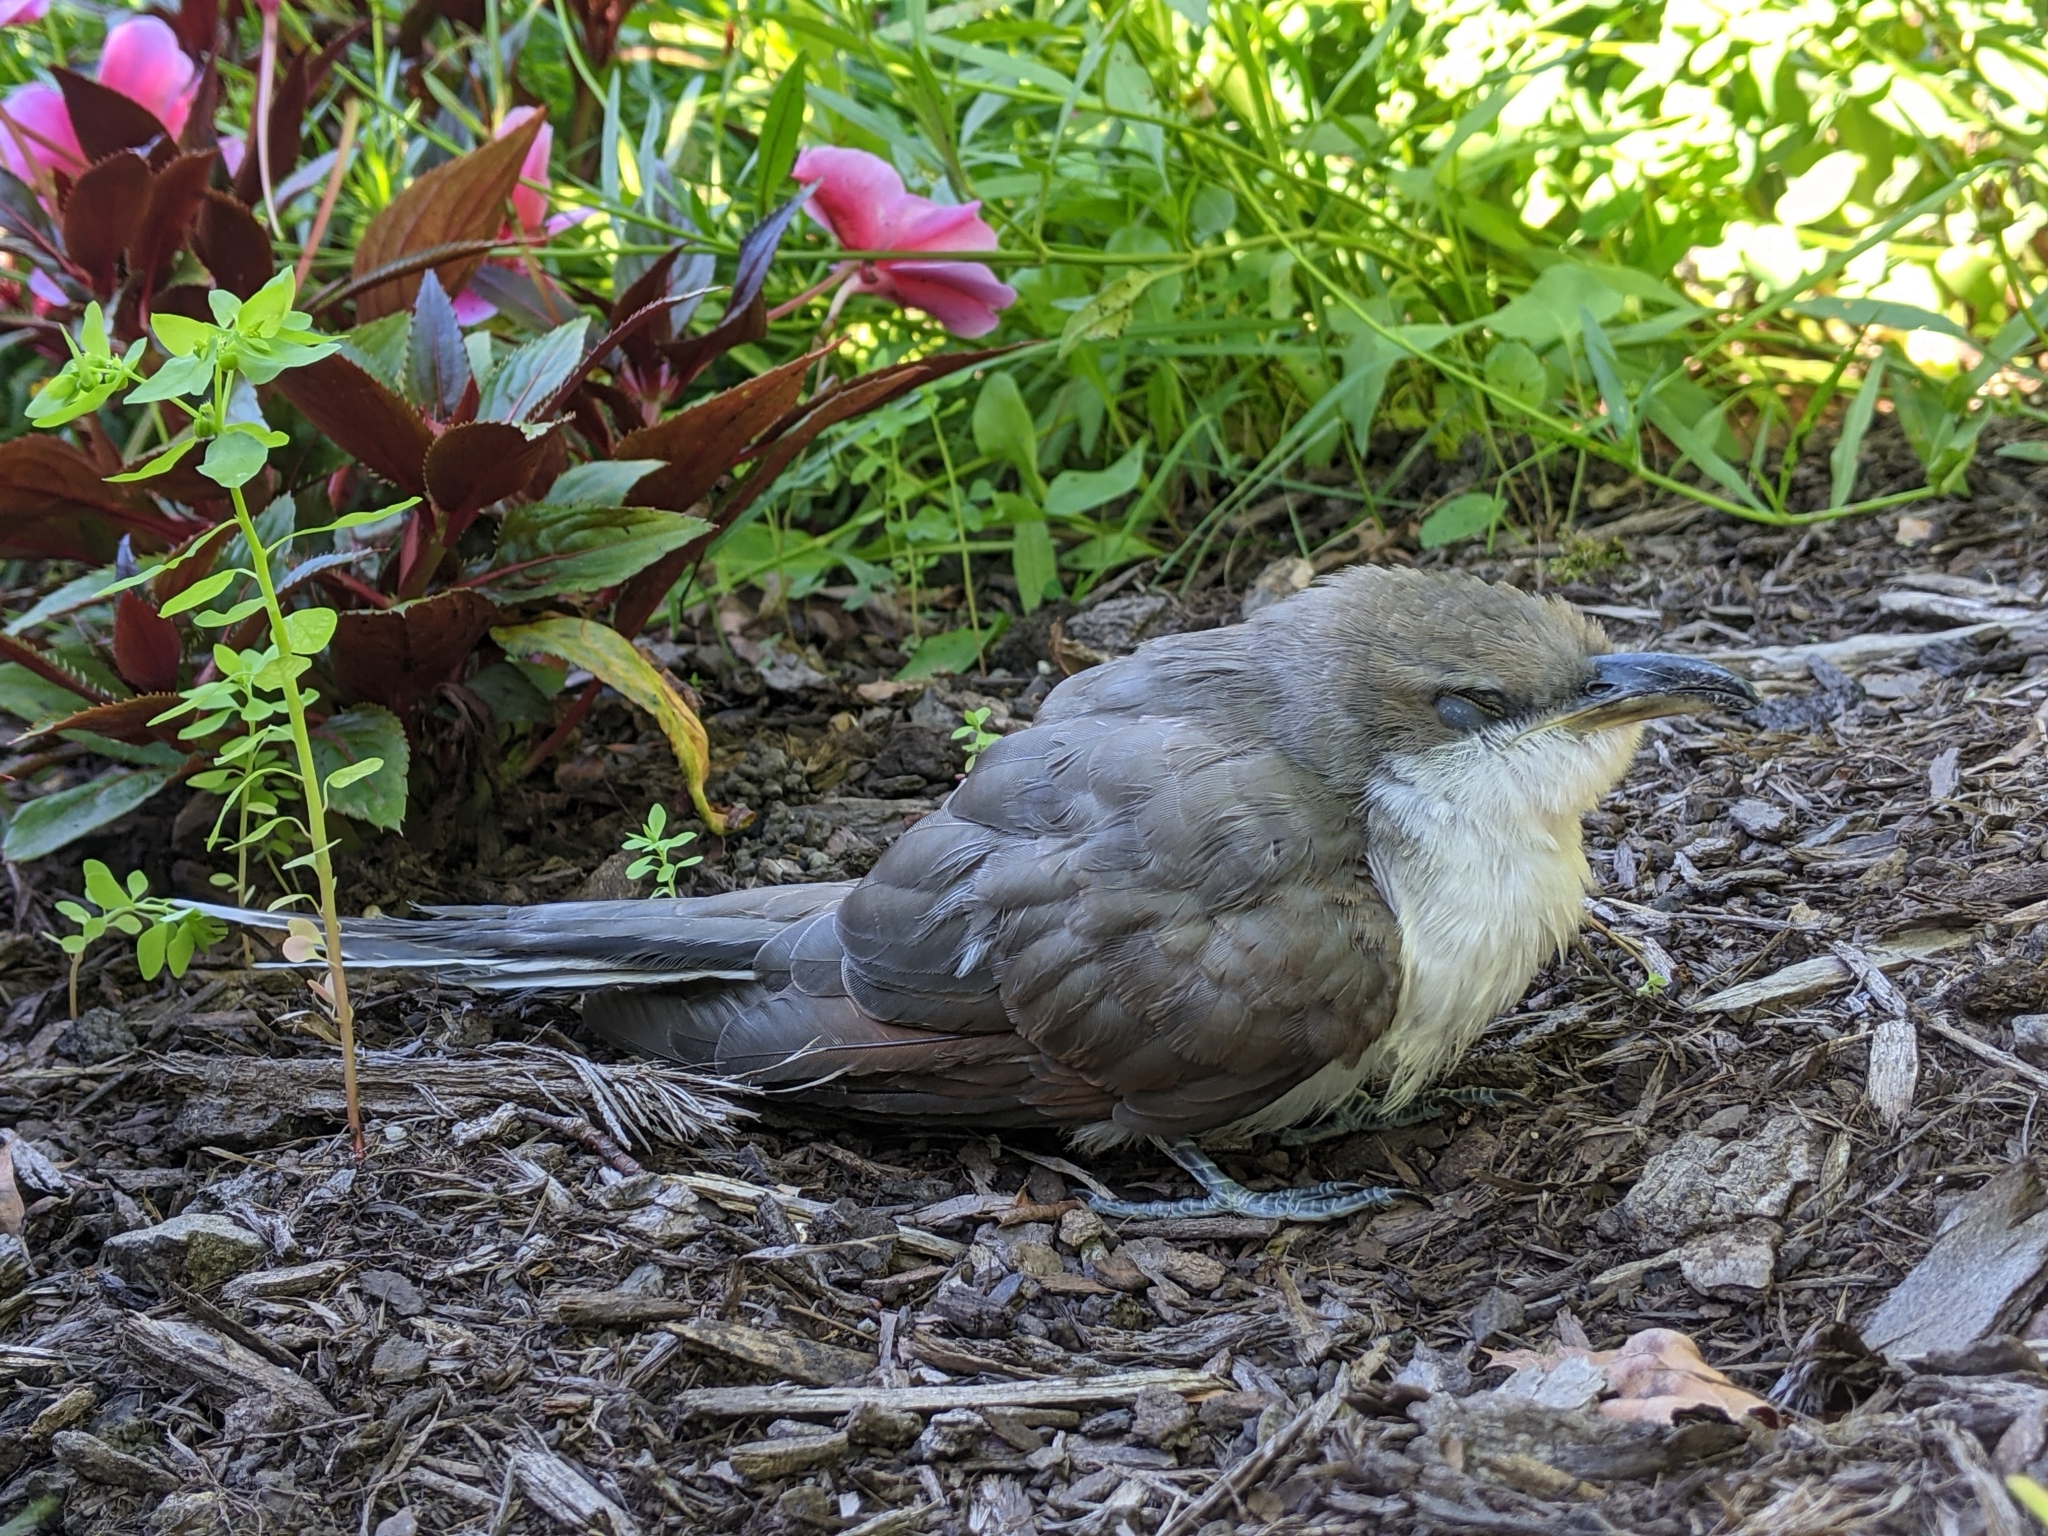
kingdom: Animalia
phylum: Chordata
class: Aves
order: Cuculiformes
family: Cuculidae
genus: Coccyzus
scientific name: Coccyzus americanus
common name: Yellow-billed cuckoo
